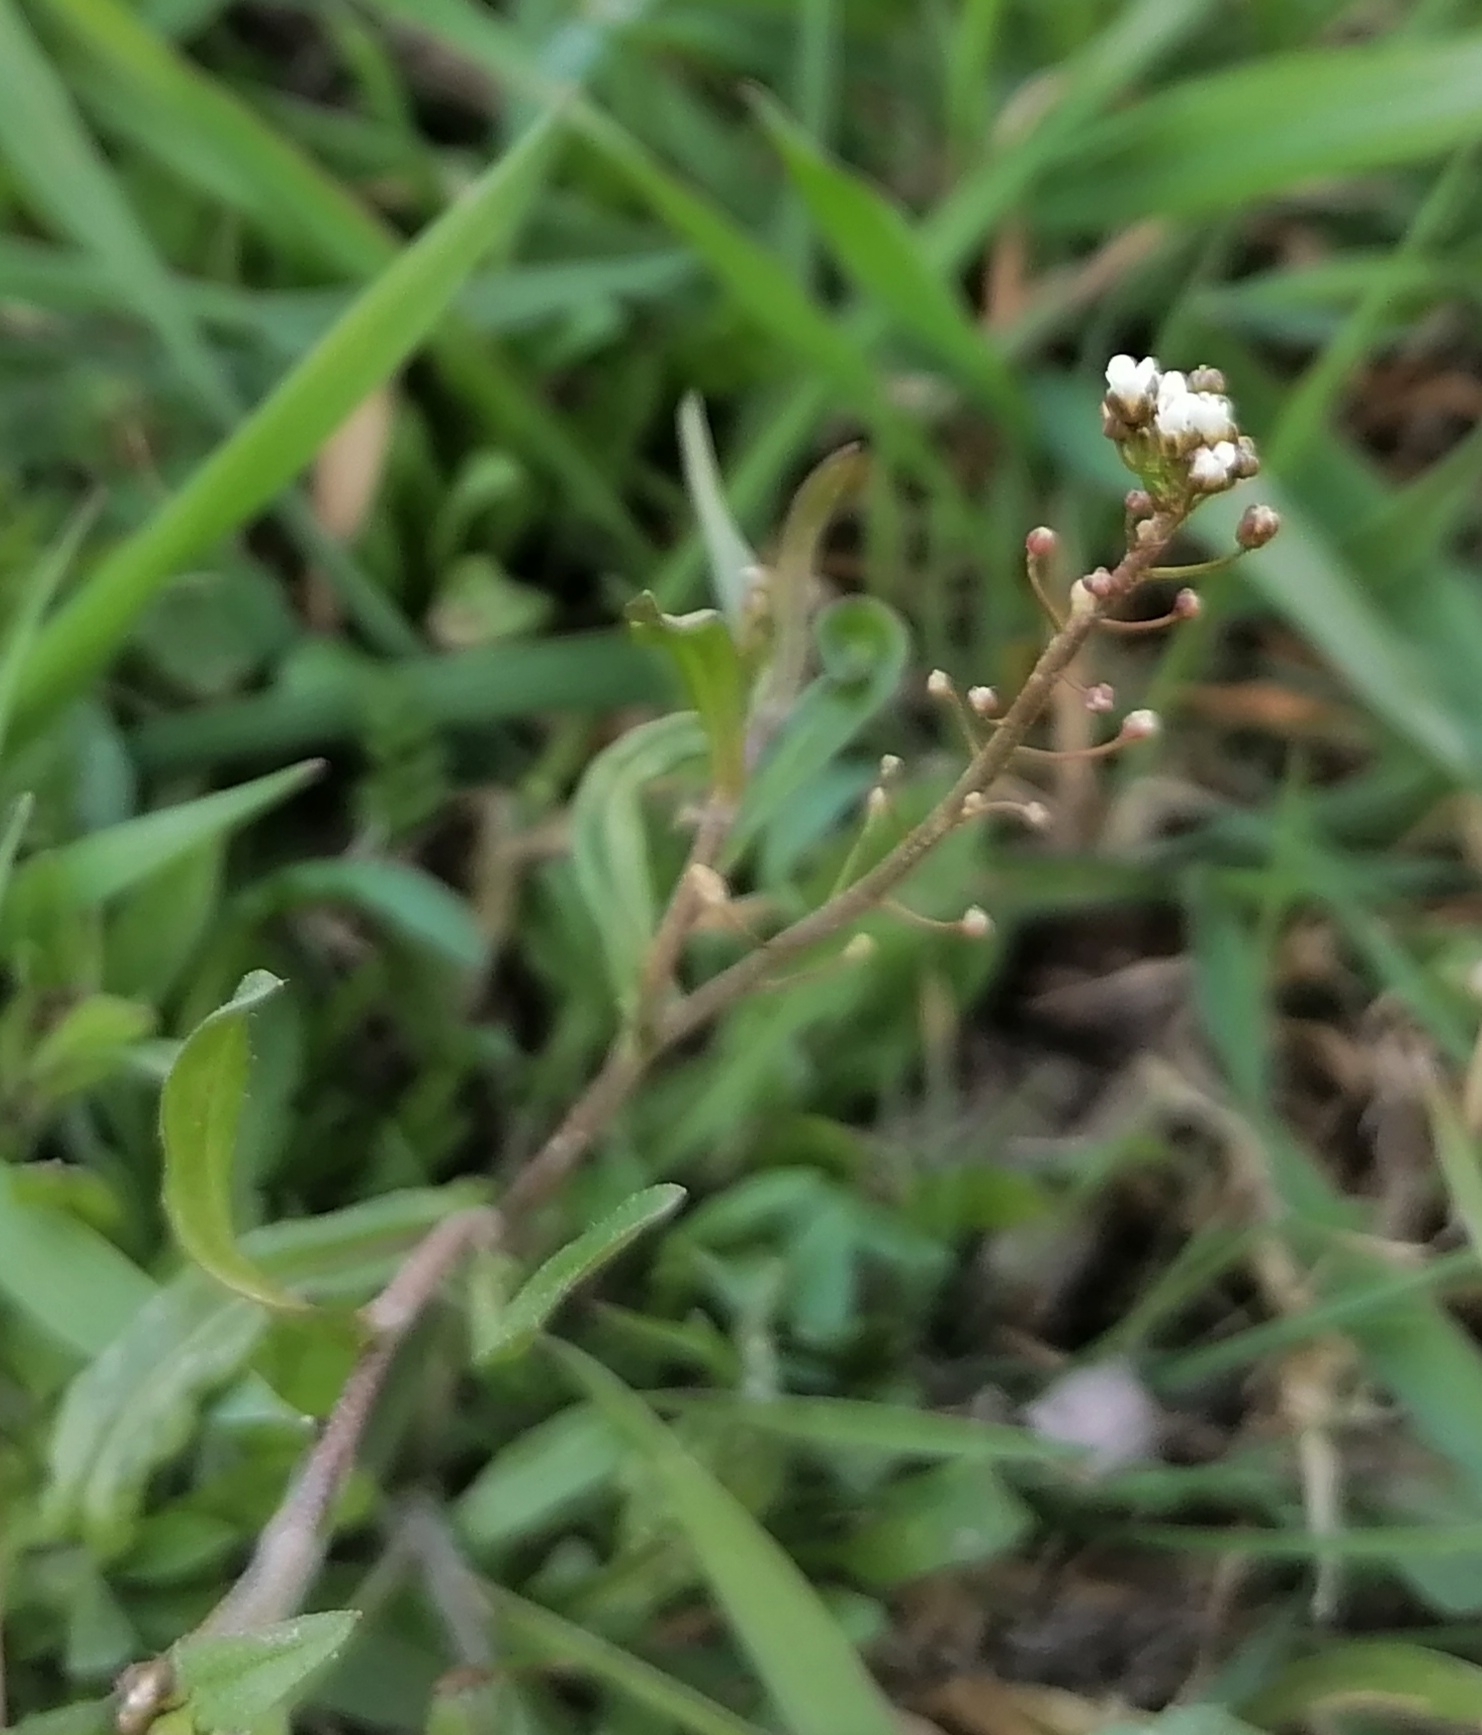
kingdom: Plantae
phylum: Tracheophyta
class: Magnoliopsida
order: Brassicales
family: Brassicaceae
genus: Capsella
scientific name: Capsella bursa-pastoris
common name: Shepherd's purse
